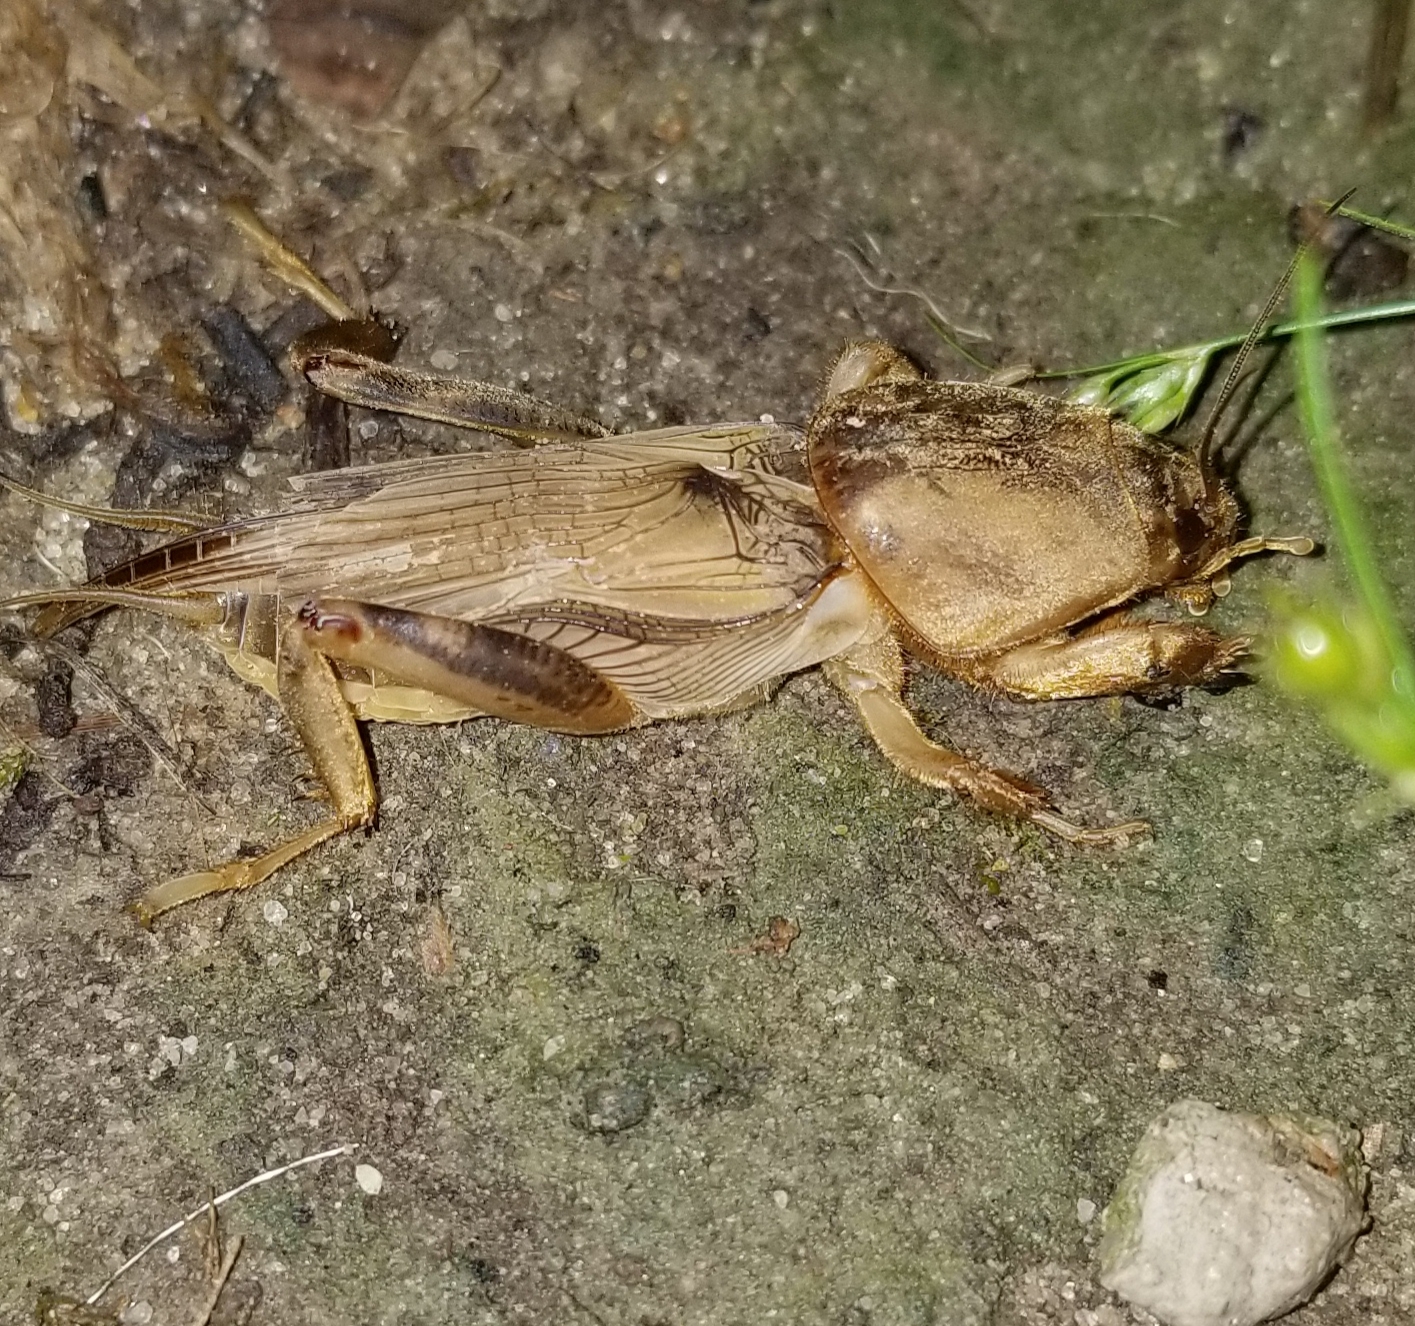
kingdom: Animalia
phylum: Arthropoda
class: Insecta
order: Orthoptera
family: Gryllotalpidae
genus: Neoscapteriscus
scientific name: Neoscapteriscus vicinus
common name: Tawny mole cricket
